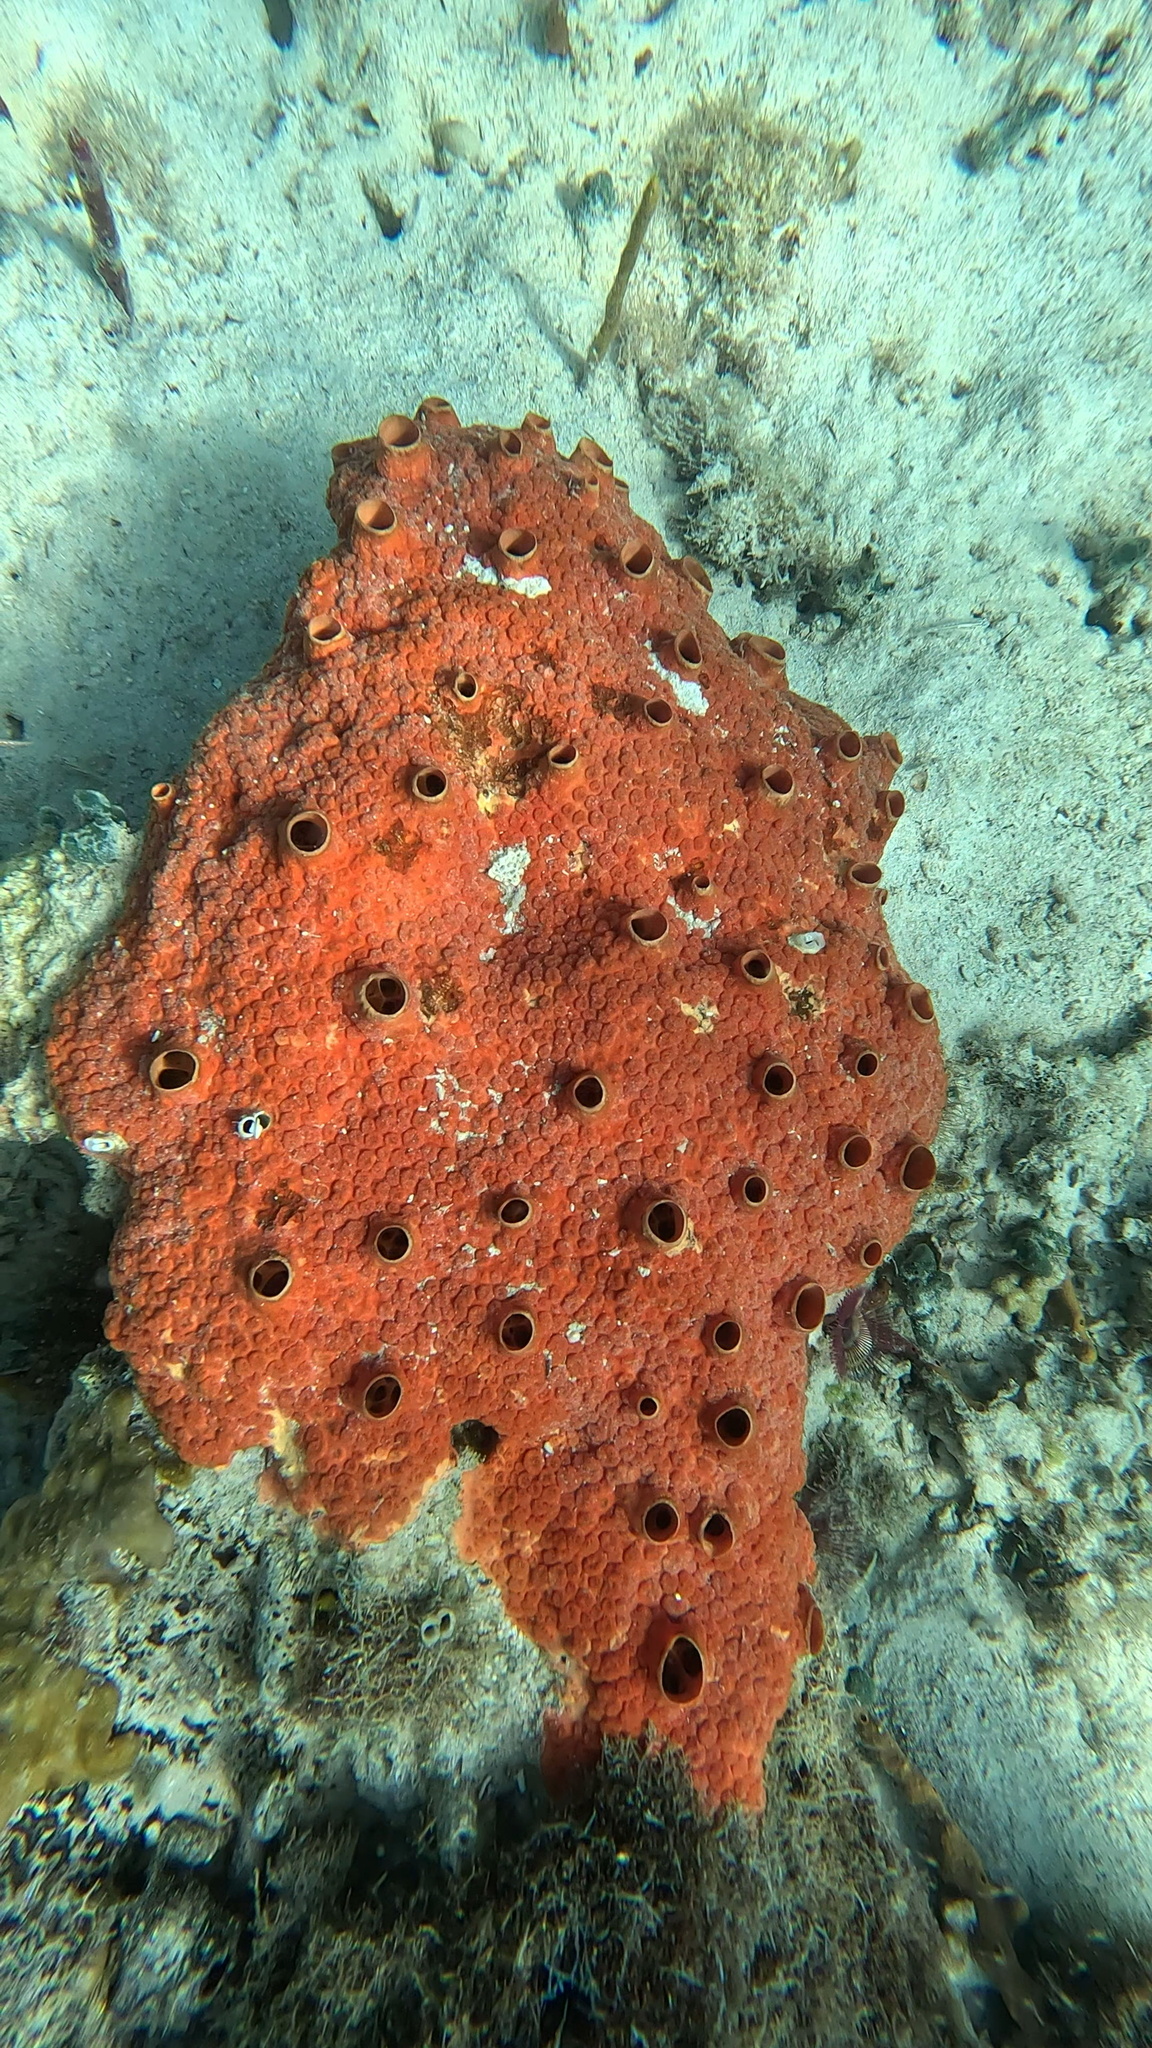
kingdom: Animalia
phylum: Porifera
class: Demospongiae
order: Clionaida
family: Clionaidae
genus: Cliothosa
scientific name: Cliothosa delitrix
